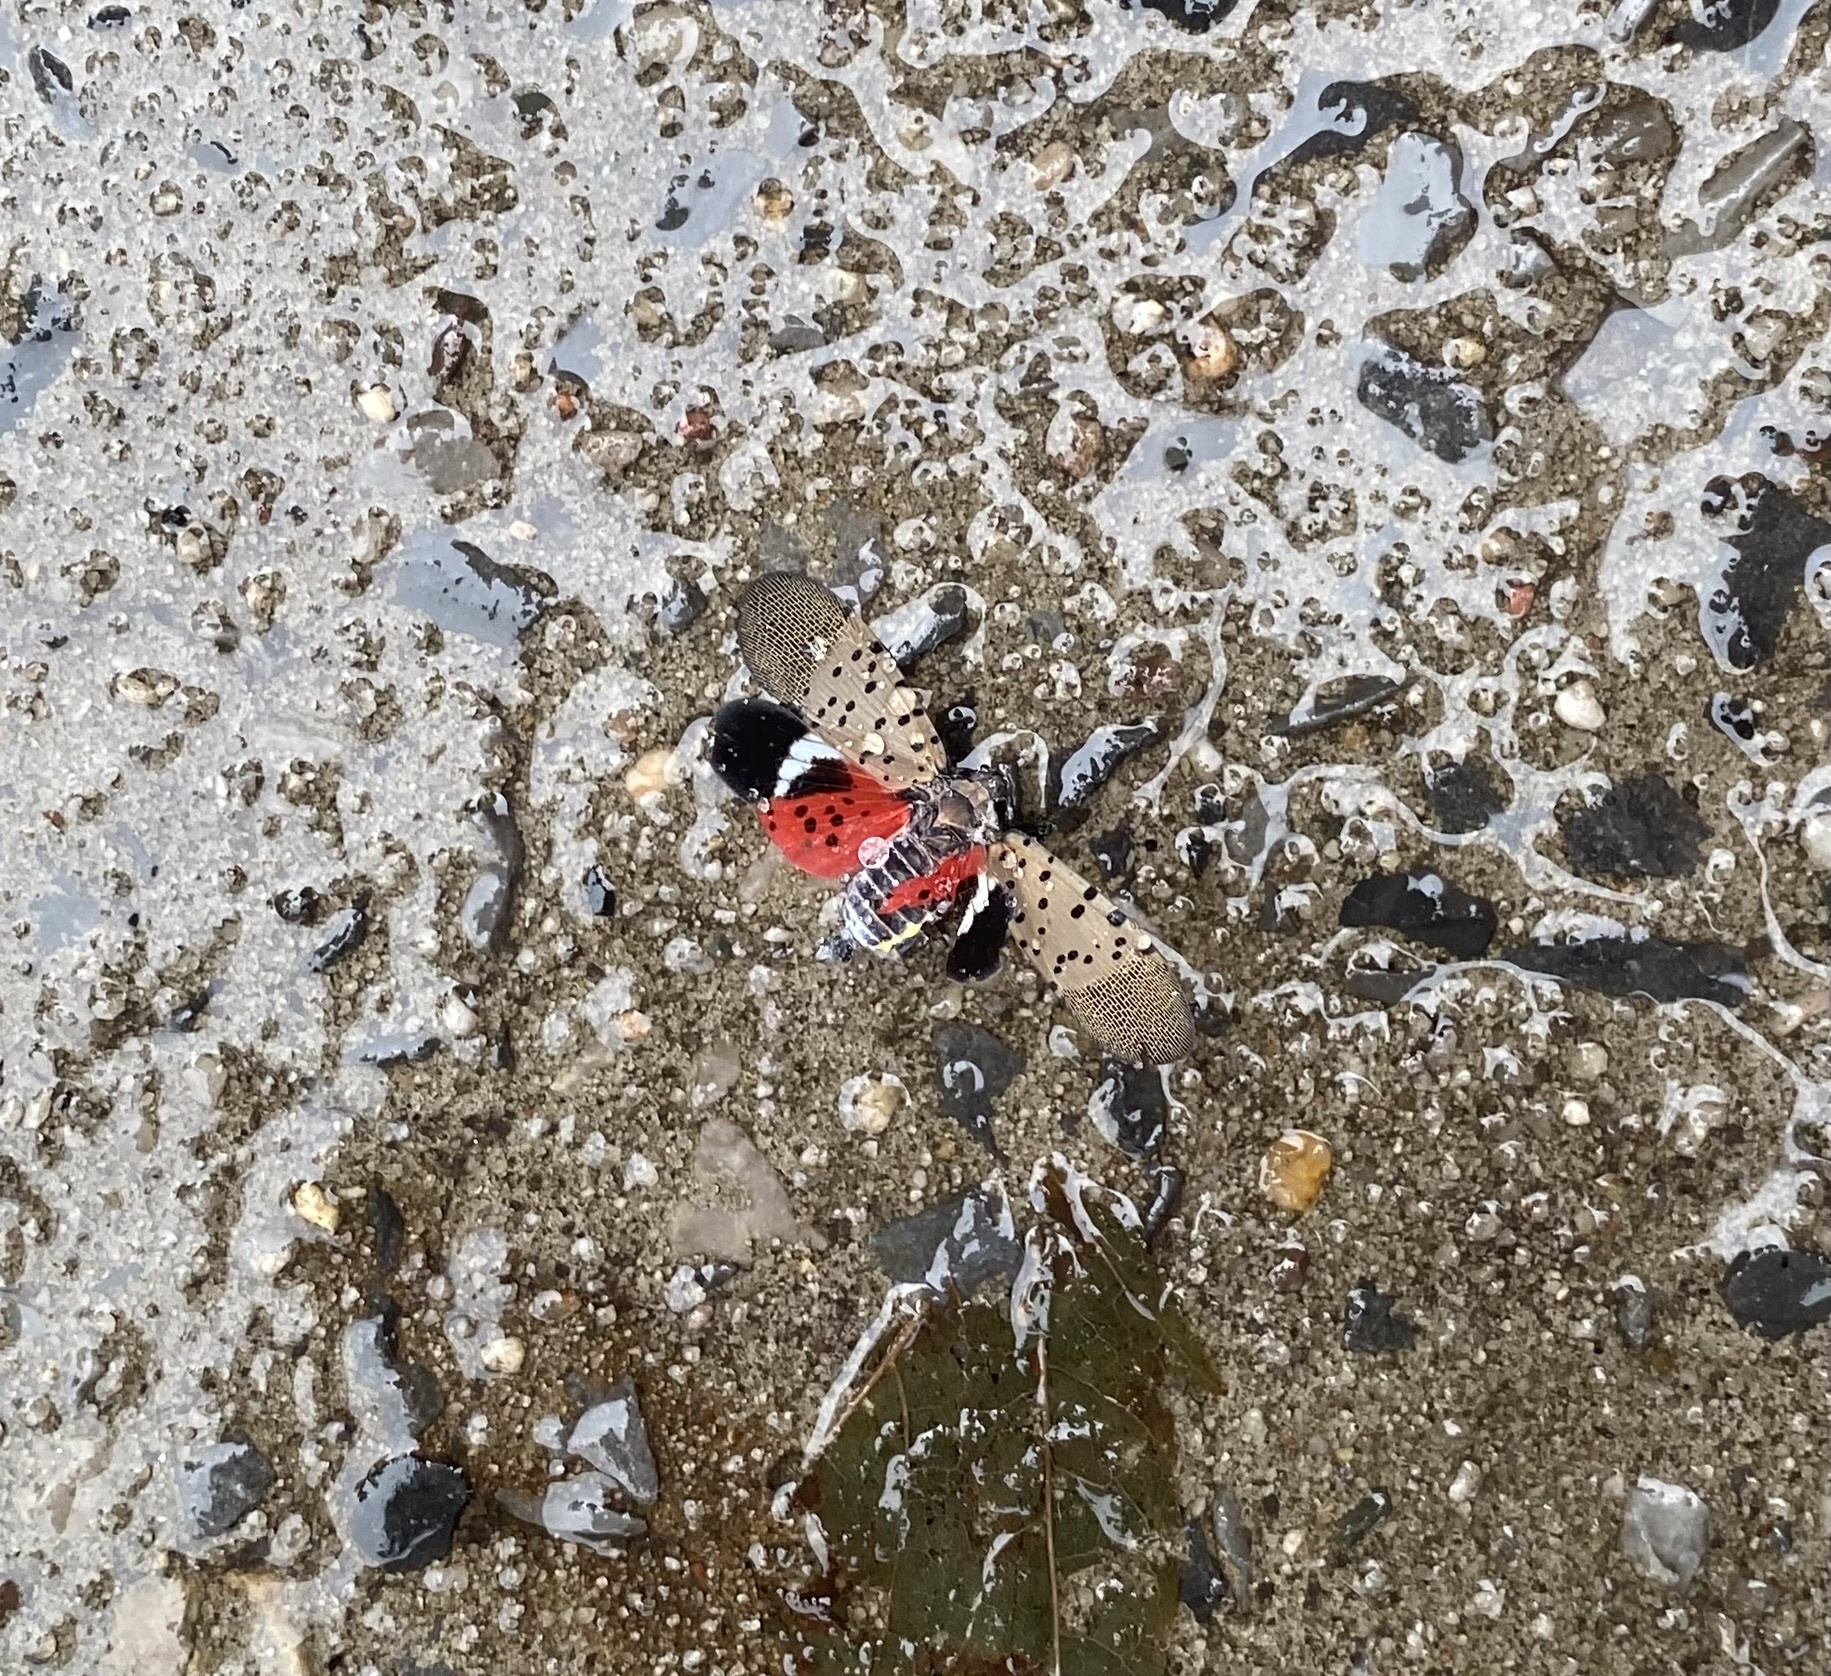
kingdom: Animalia
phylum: Arthropoda
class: Insecta
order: Hemiptera
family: Fulgoridae
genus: Lycorma
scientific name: Lycorma delicatula
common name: Spotted lanternfly
